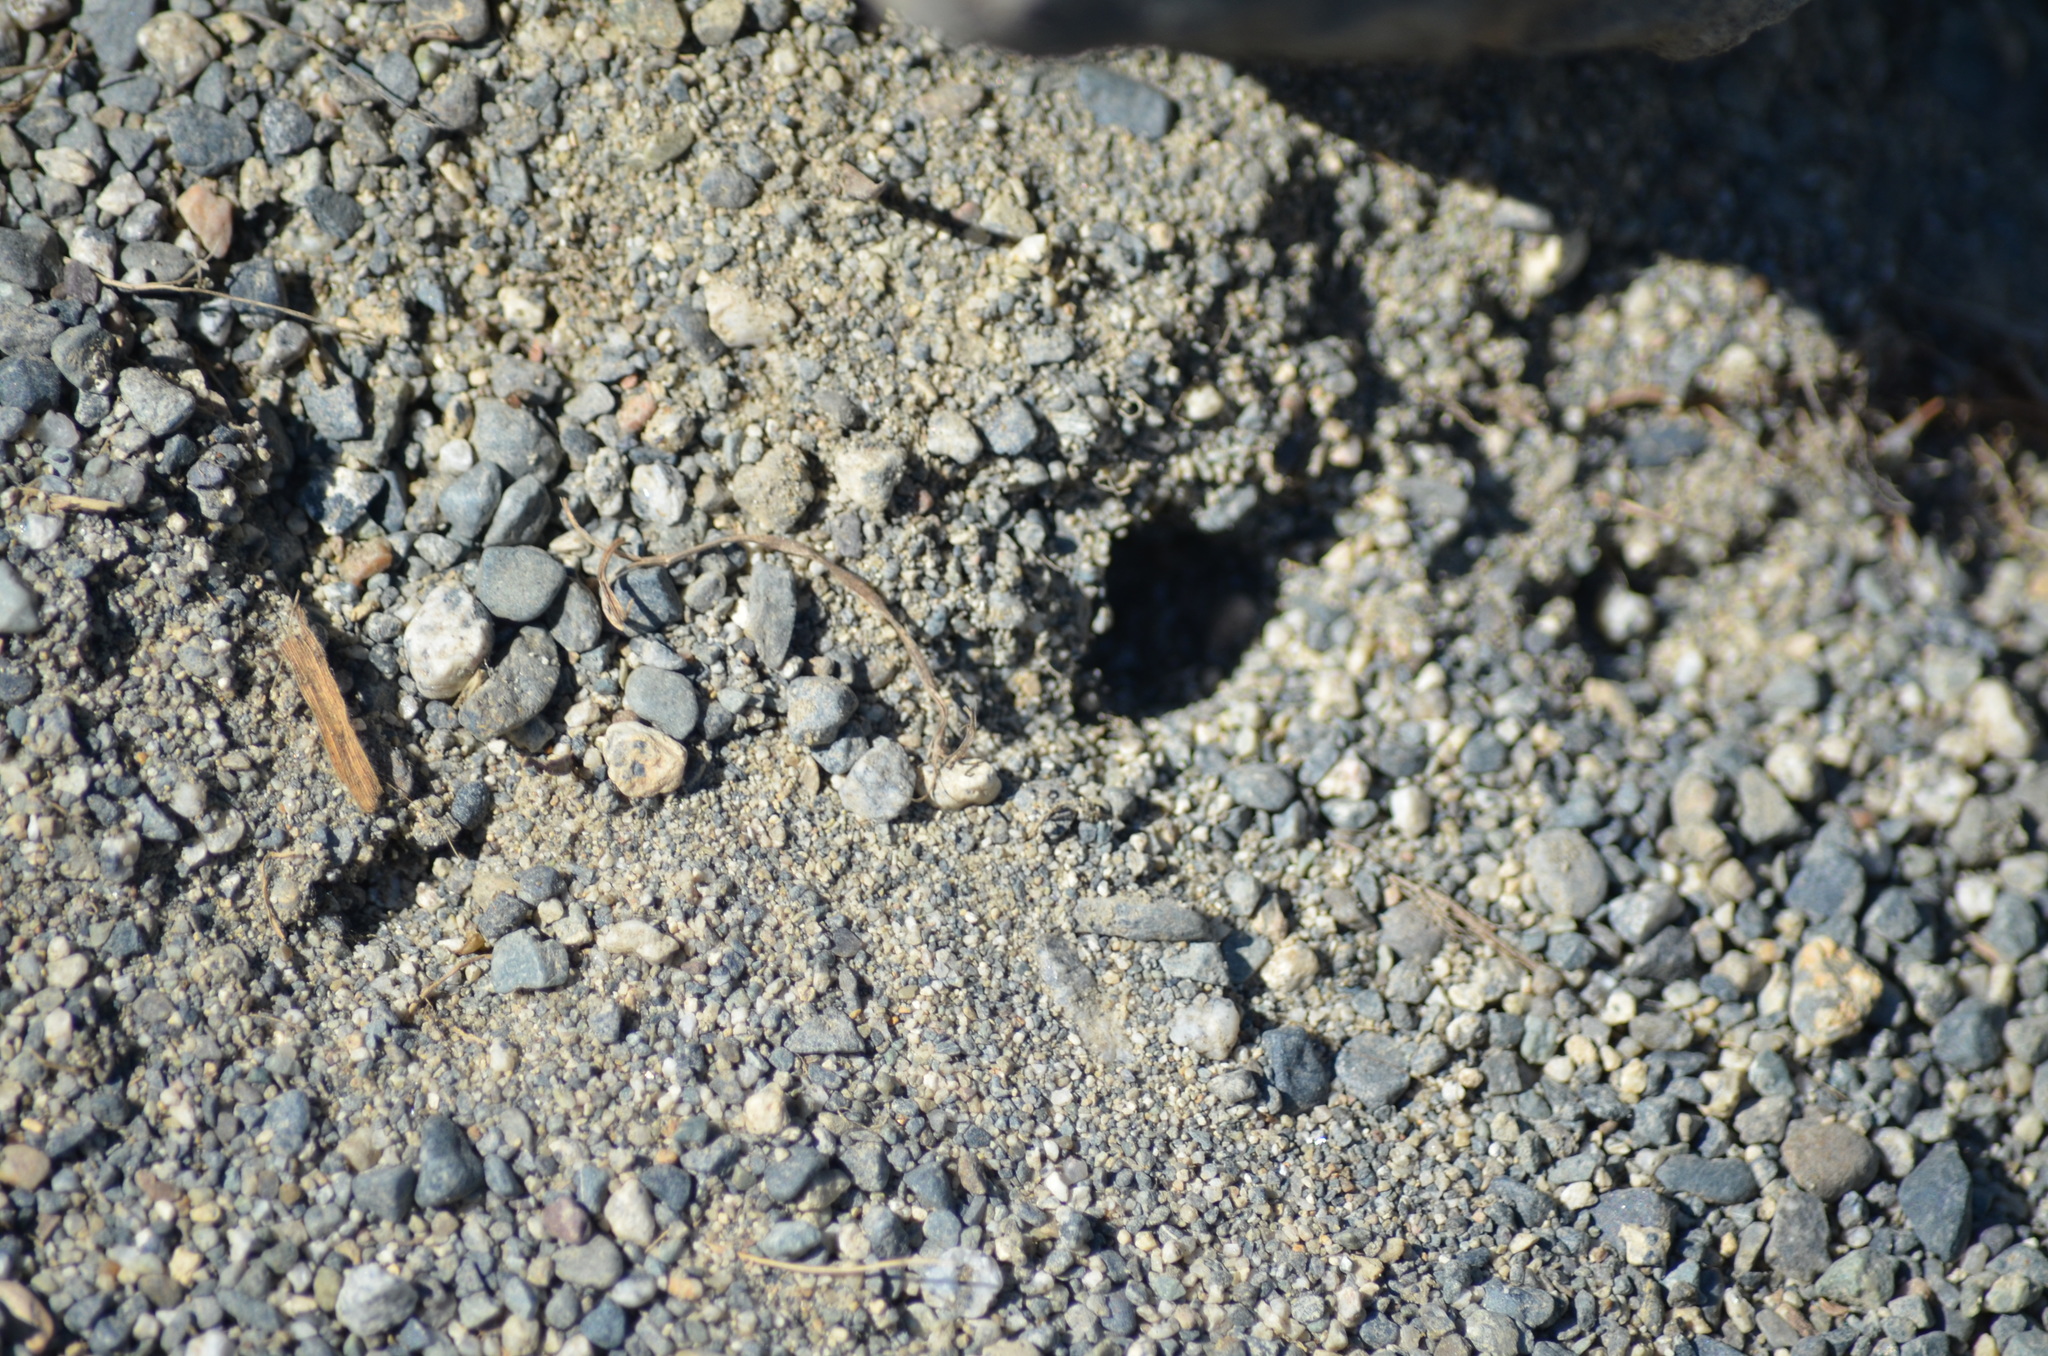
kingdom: Animalia
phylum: Arthropoda
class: Insecta
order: Hymenoptera
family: Crabronidae
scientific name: Crabronidae
